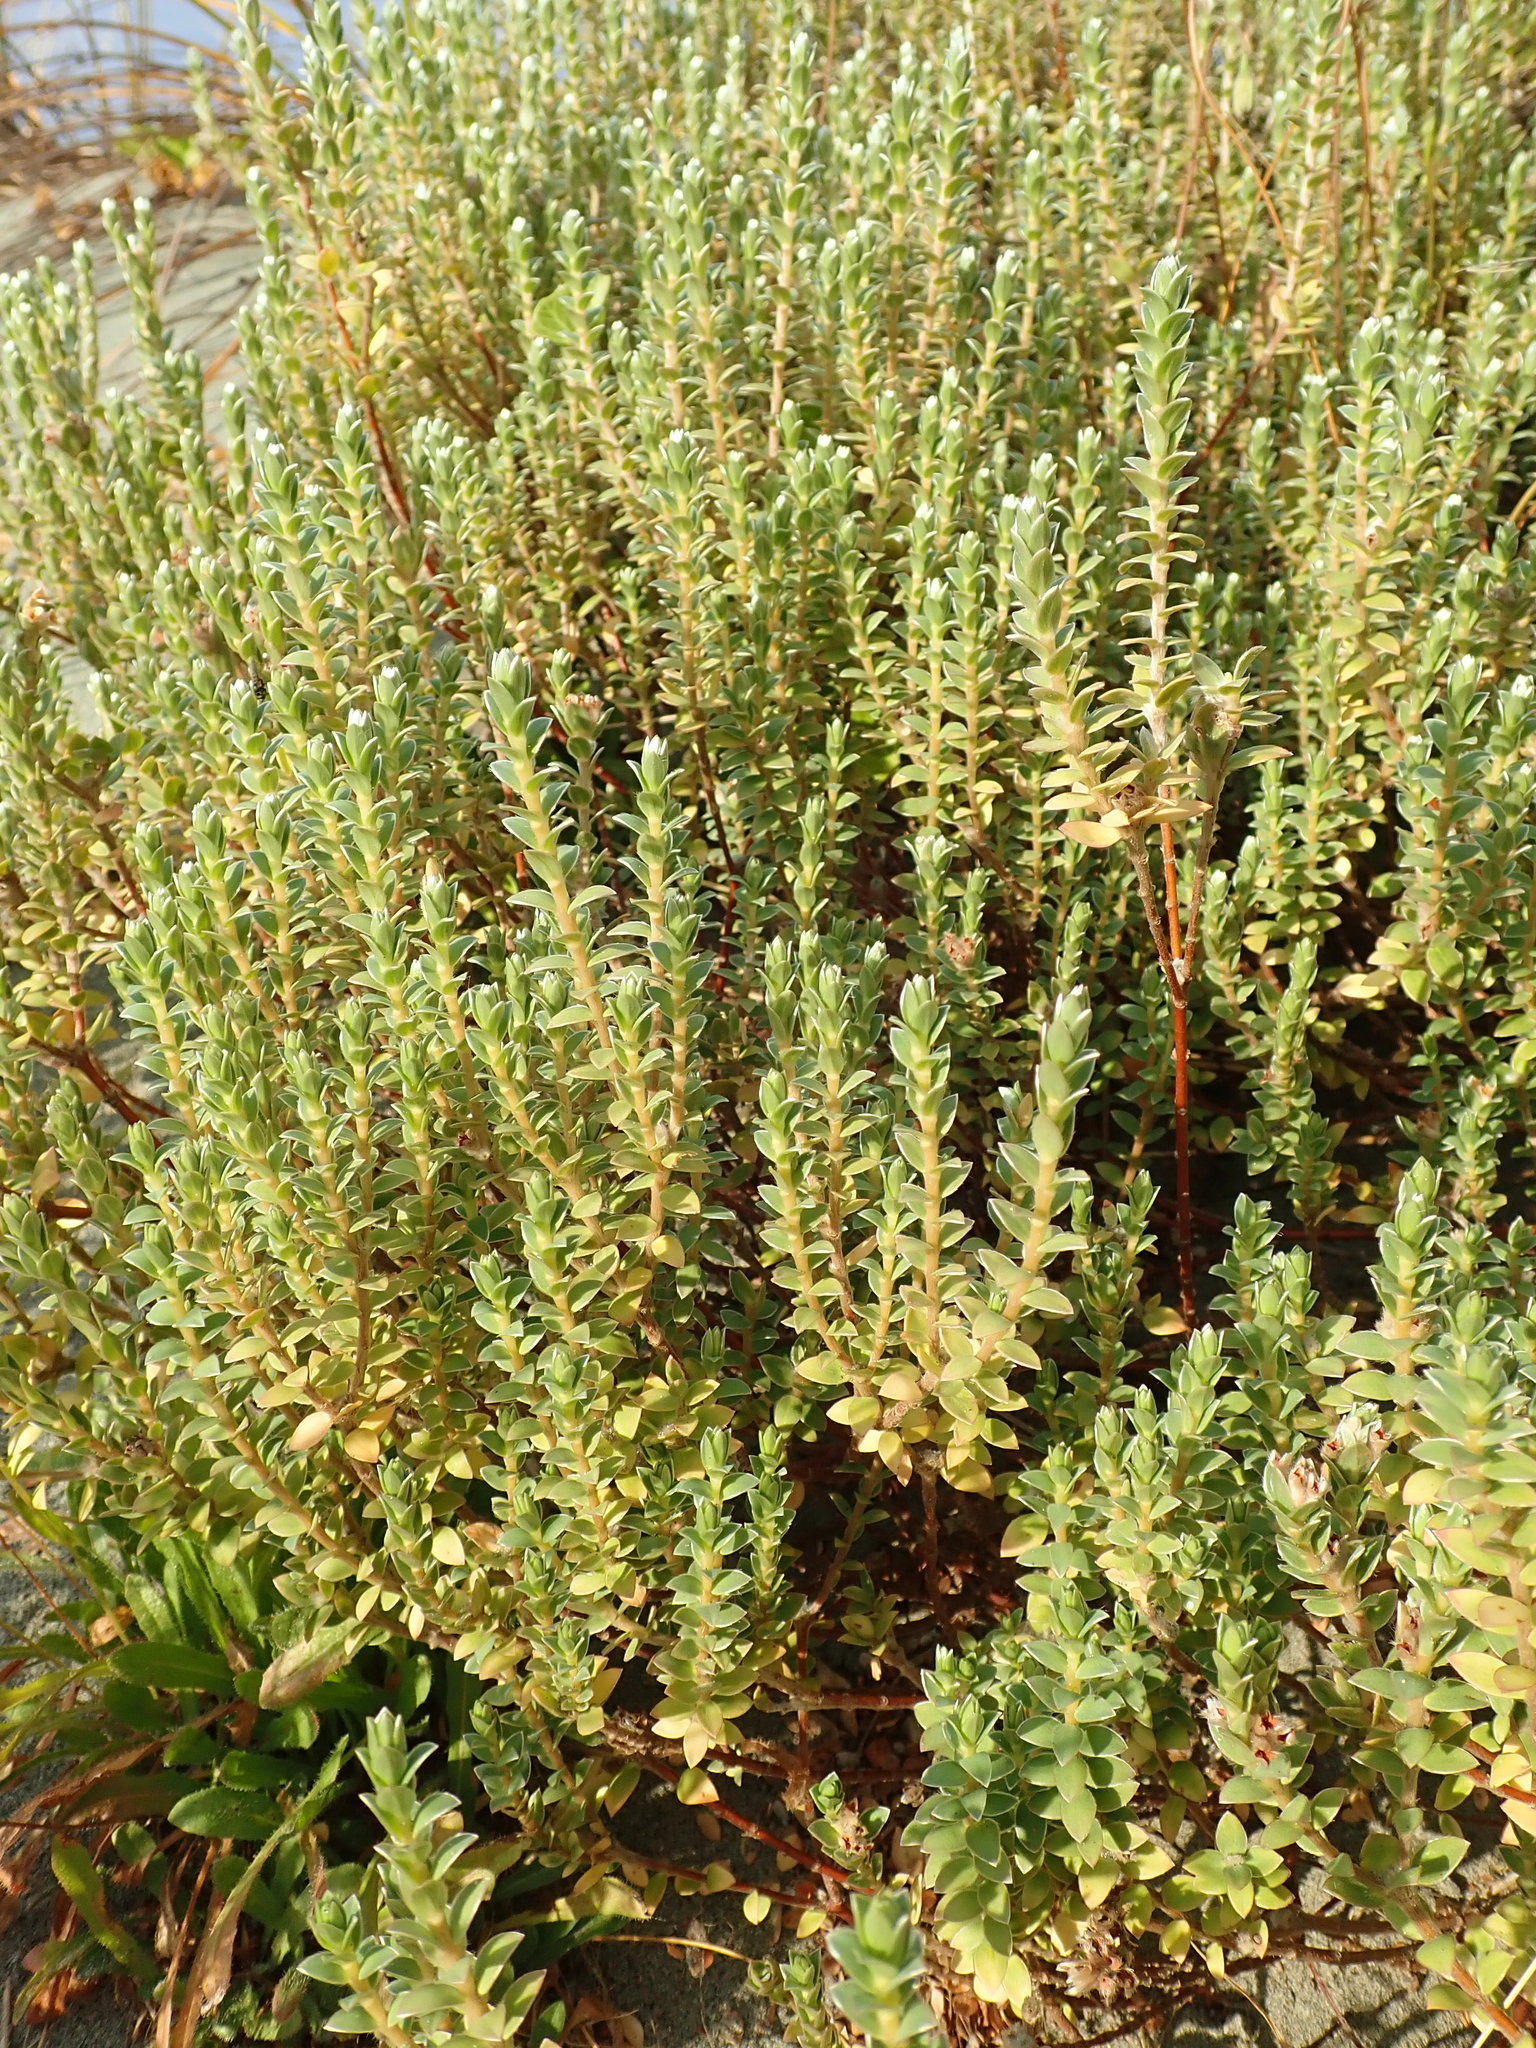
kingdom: Plantae
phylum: Tracheophyta
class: Magnoliopsida
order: Malvales
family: Thymelaeaceae
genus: Pimelea
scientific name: Pimelea villosa
